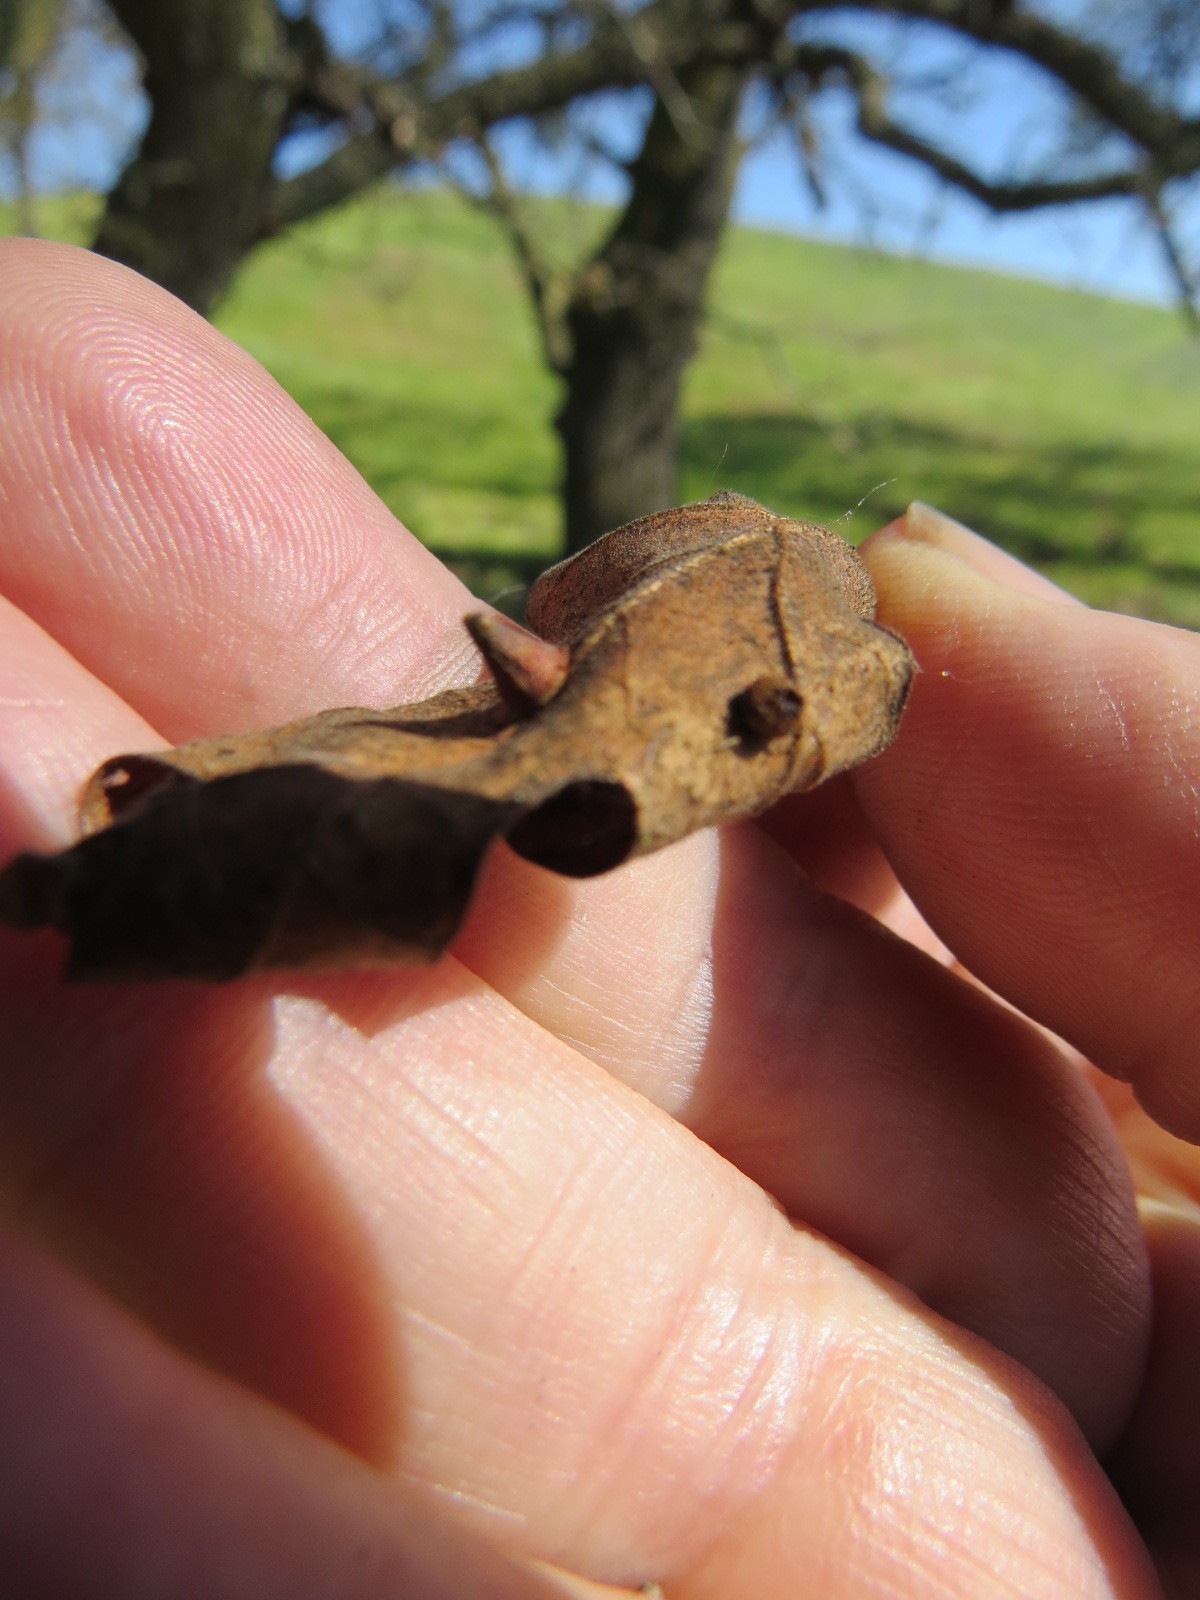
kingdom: Animalia
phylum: Arthropoda
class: Insecta
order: Hymenoptera
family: Cynipidae
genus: Andricus
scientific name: Andricus
